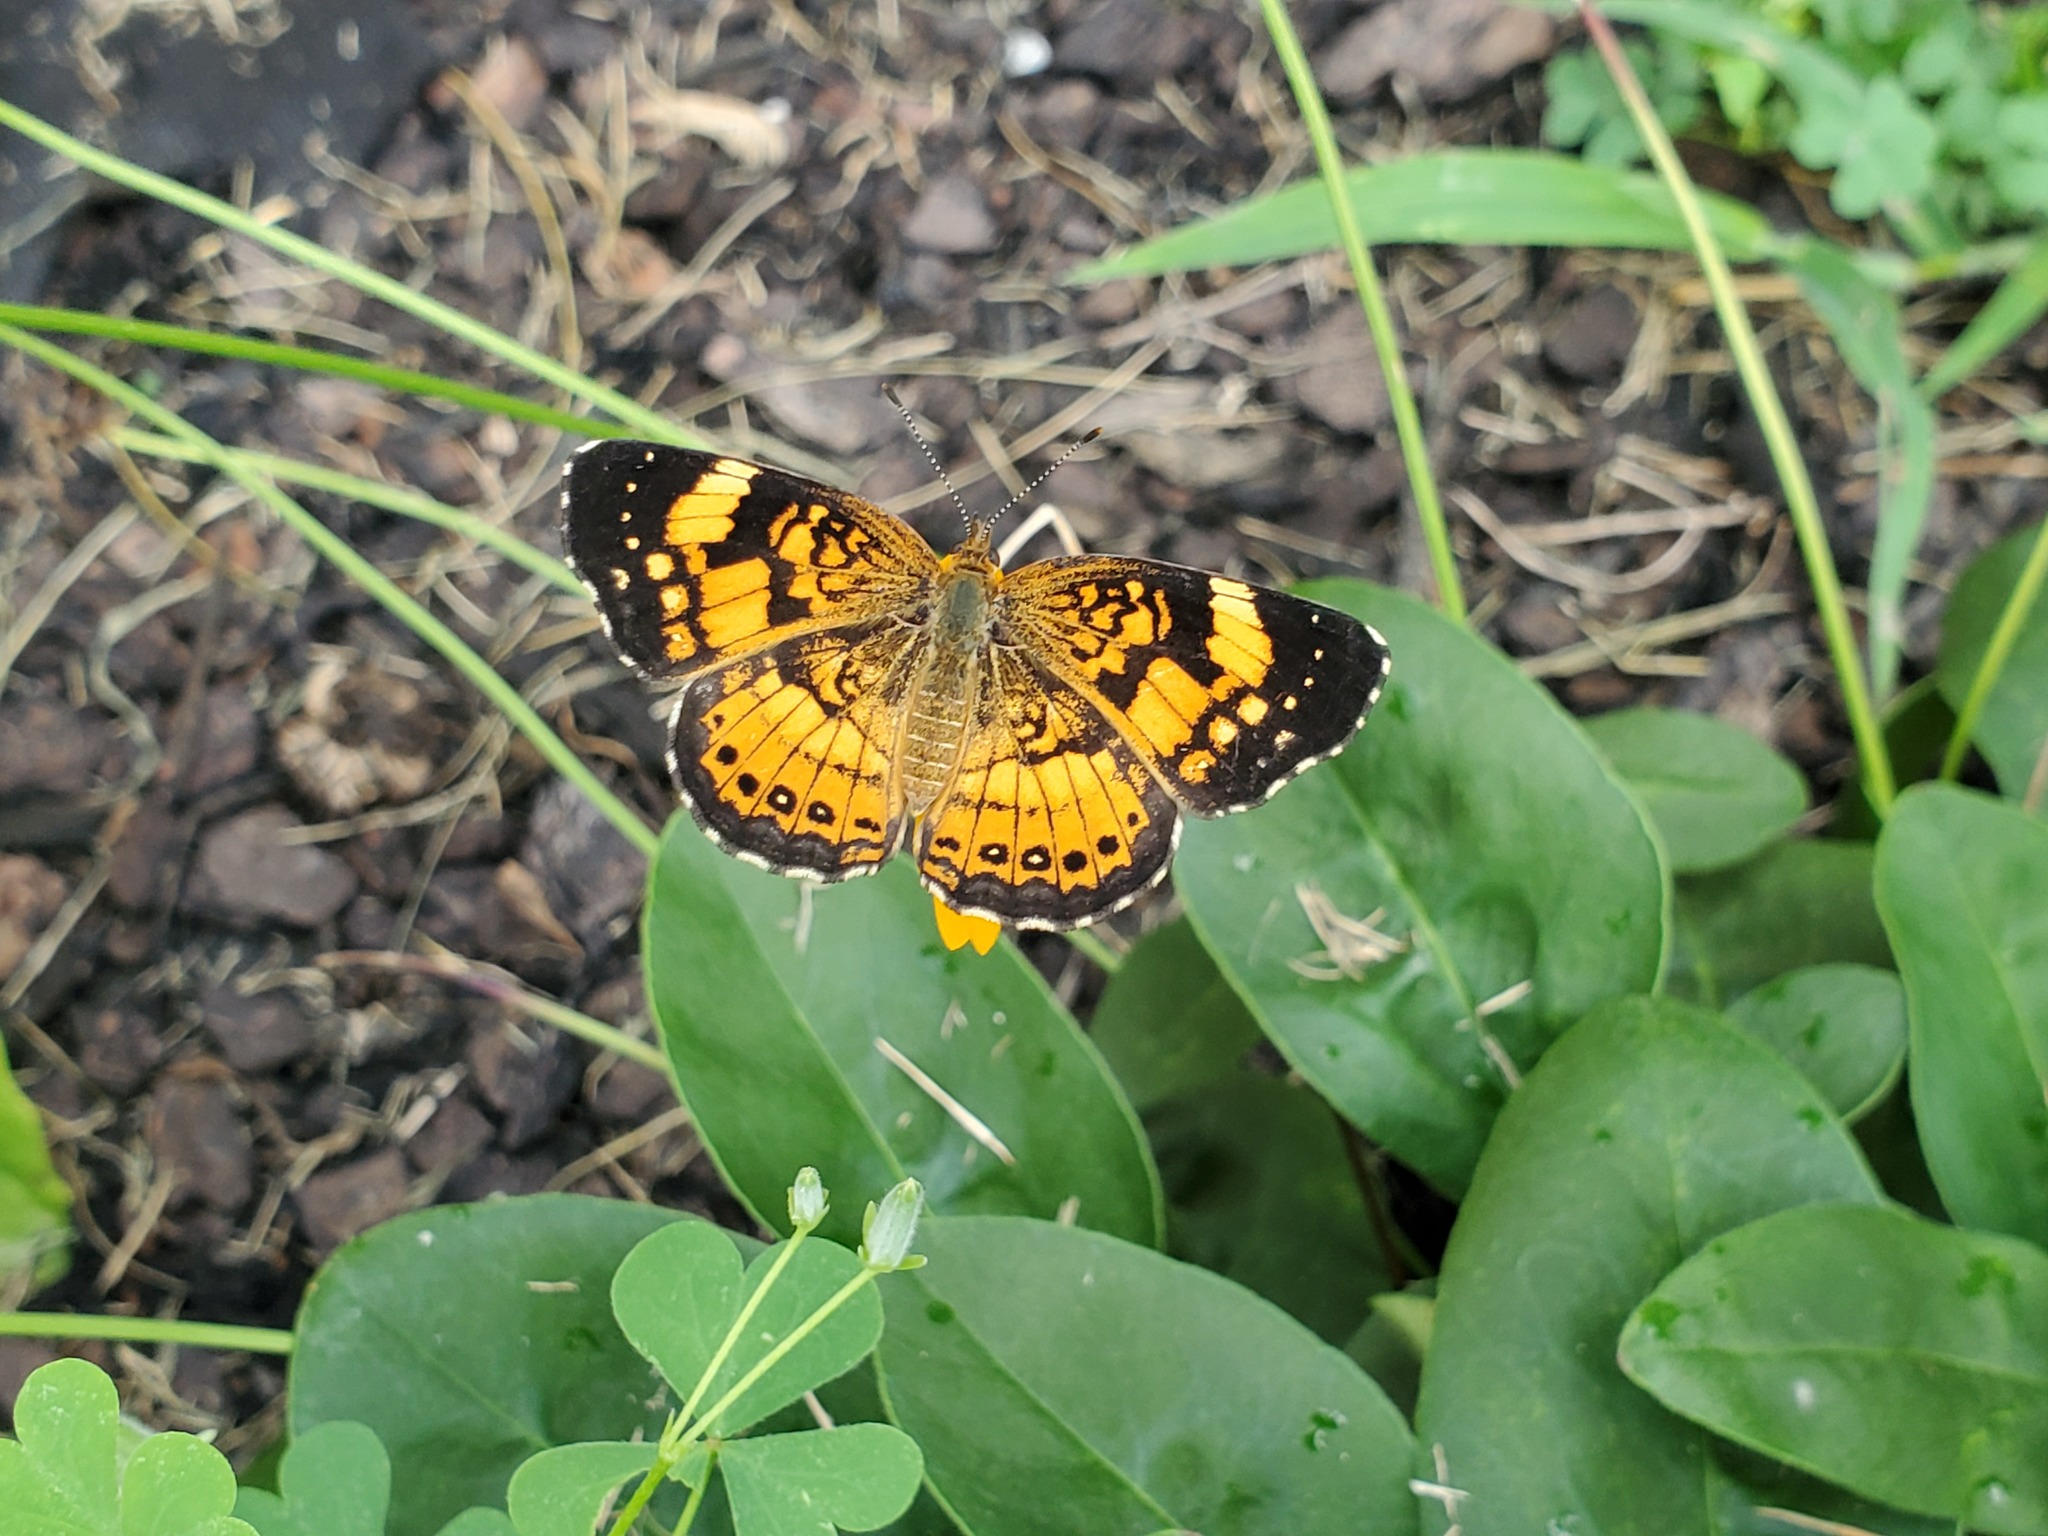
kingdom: Animalia
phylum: Arthropoda
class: Insecta
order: Lepidoptera
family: Nymphalidae
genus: Chlosyne
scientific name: Chlosyne nycteis
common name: Silvery checkerspot
